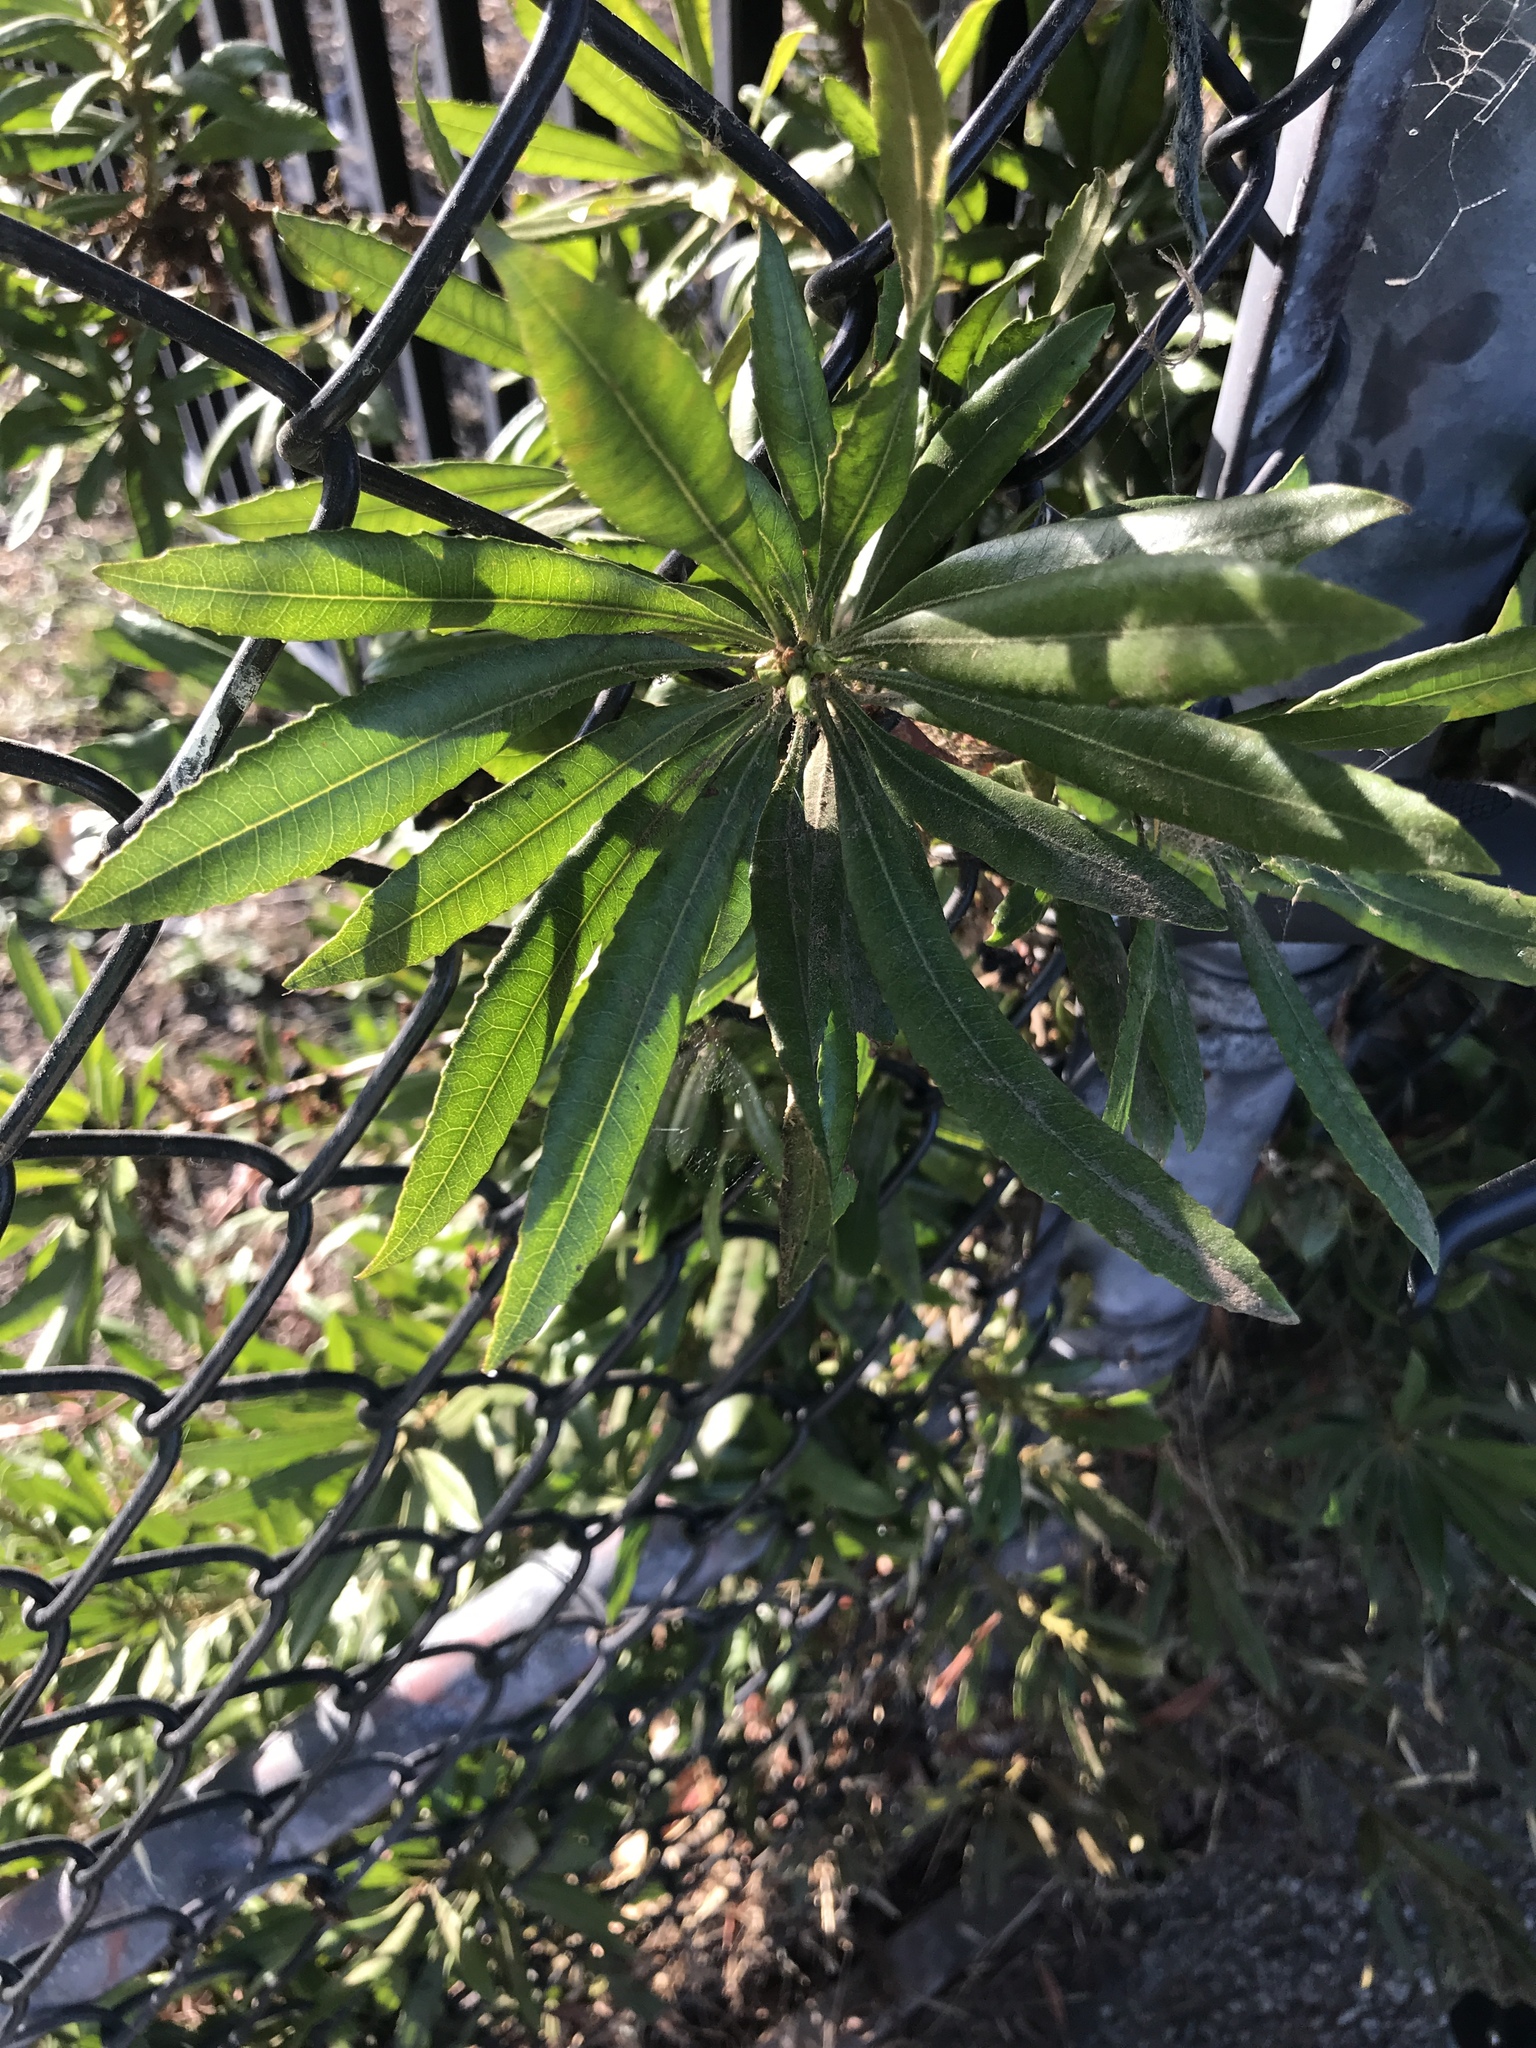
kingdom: Plantae
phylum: Tracheophyta
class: Magnoliopsida
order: Fagales
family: Myricaceae
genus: Morella
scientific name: Morella californica
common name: California wax-myrtle
